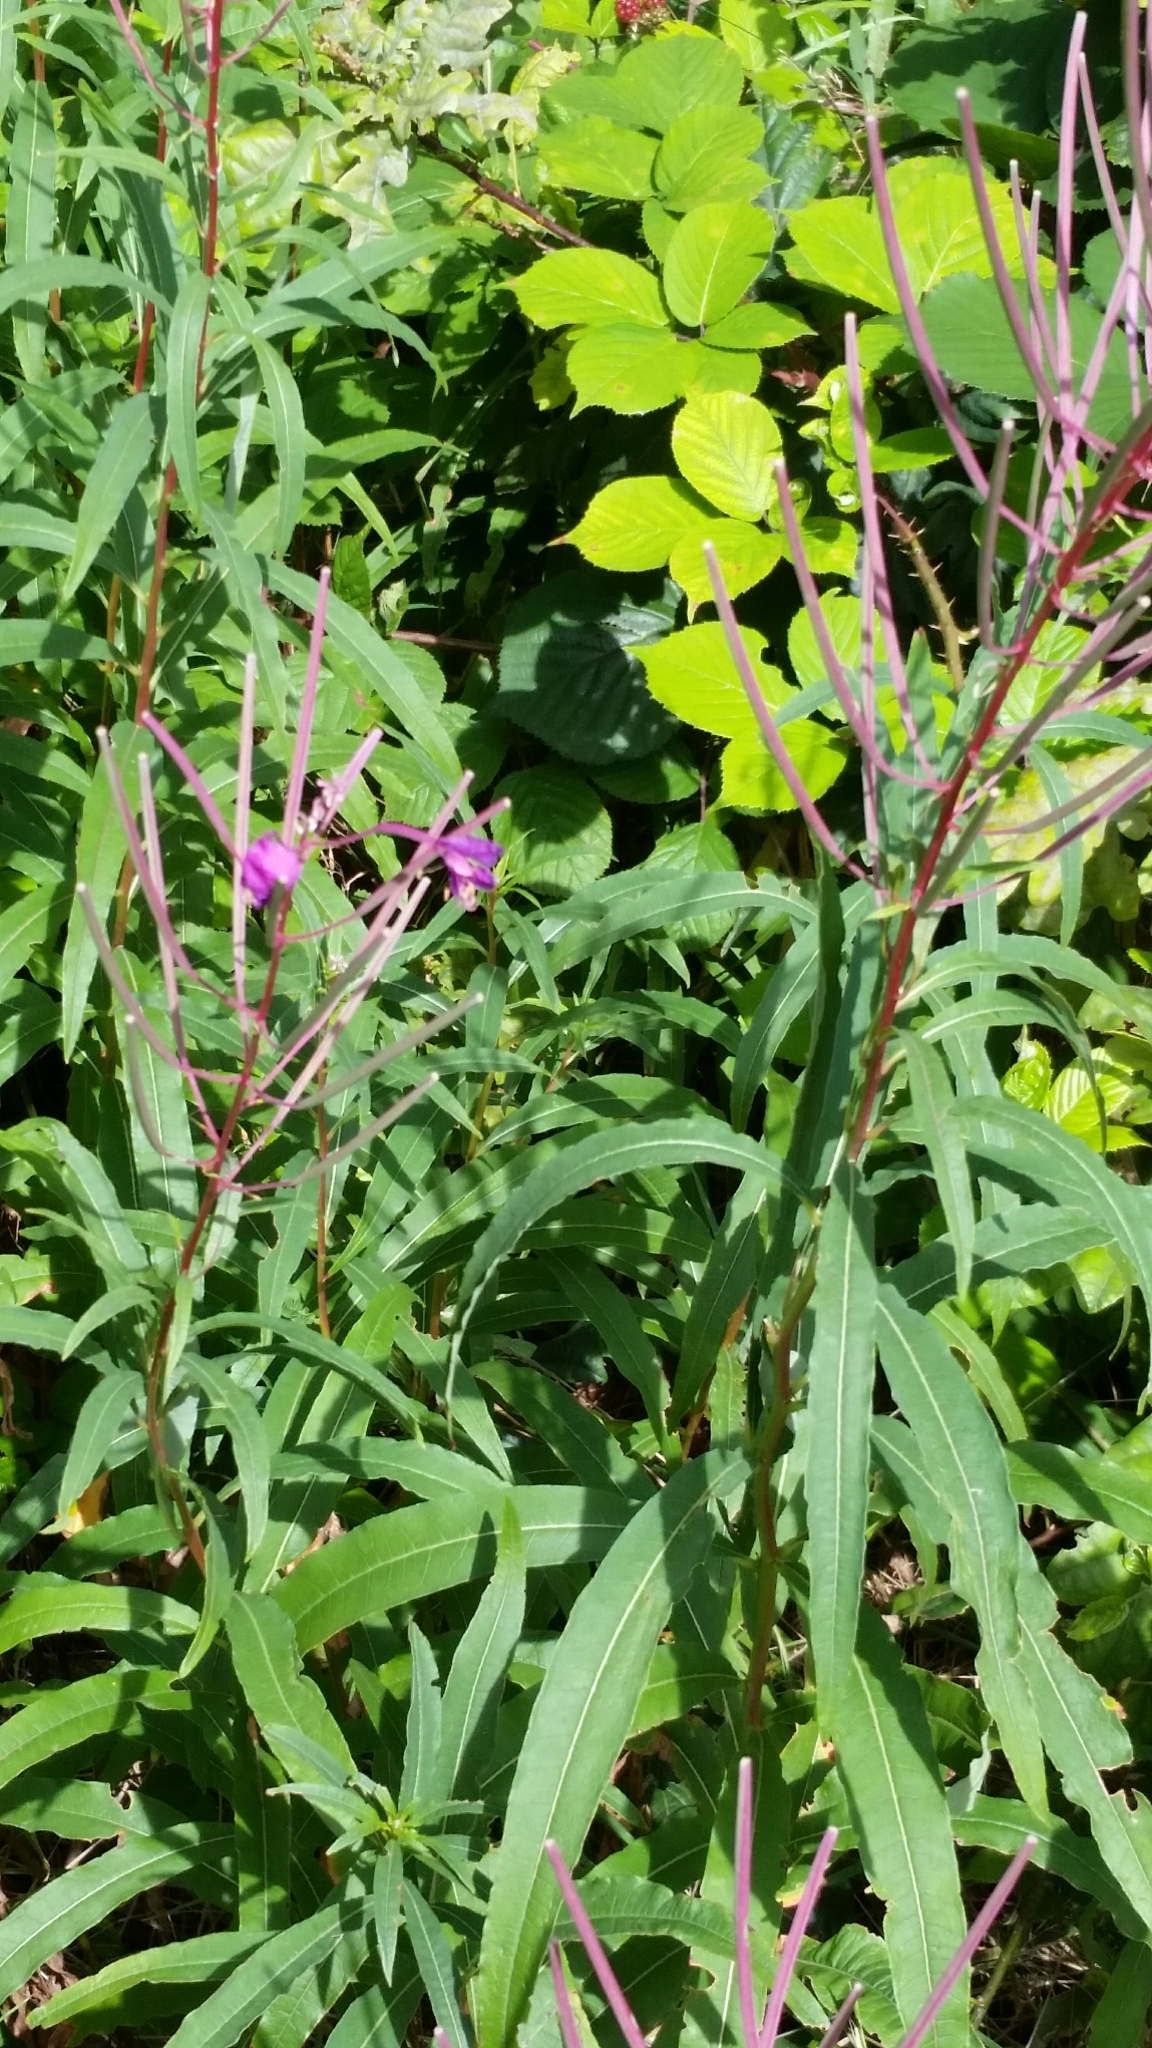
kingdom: Plantae
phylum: Tracheophyta
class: Magnoliopsida
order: Myrtales
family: Onagraceae
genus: Chamaenerion
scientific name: Chamaenerion angustifolium
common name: Fireweed
